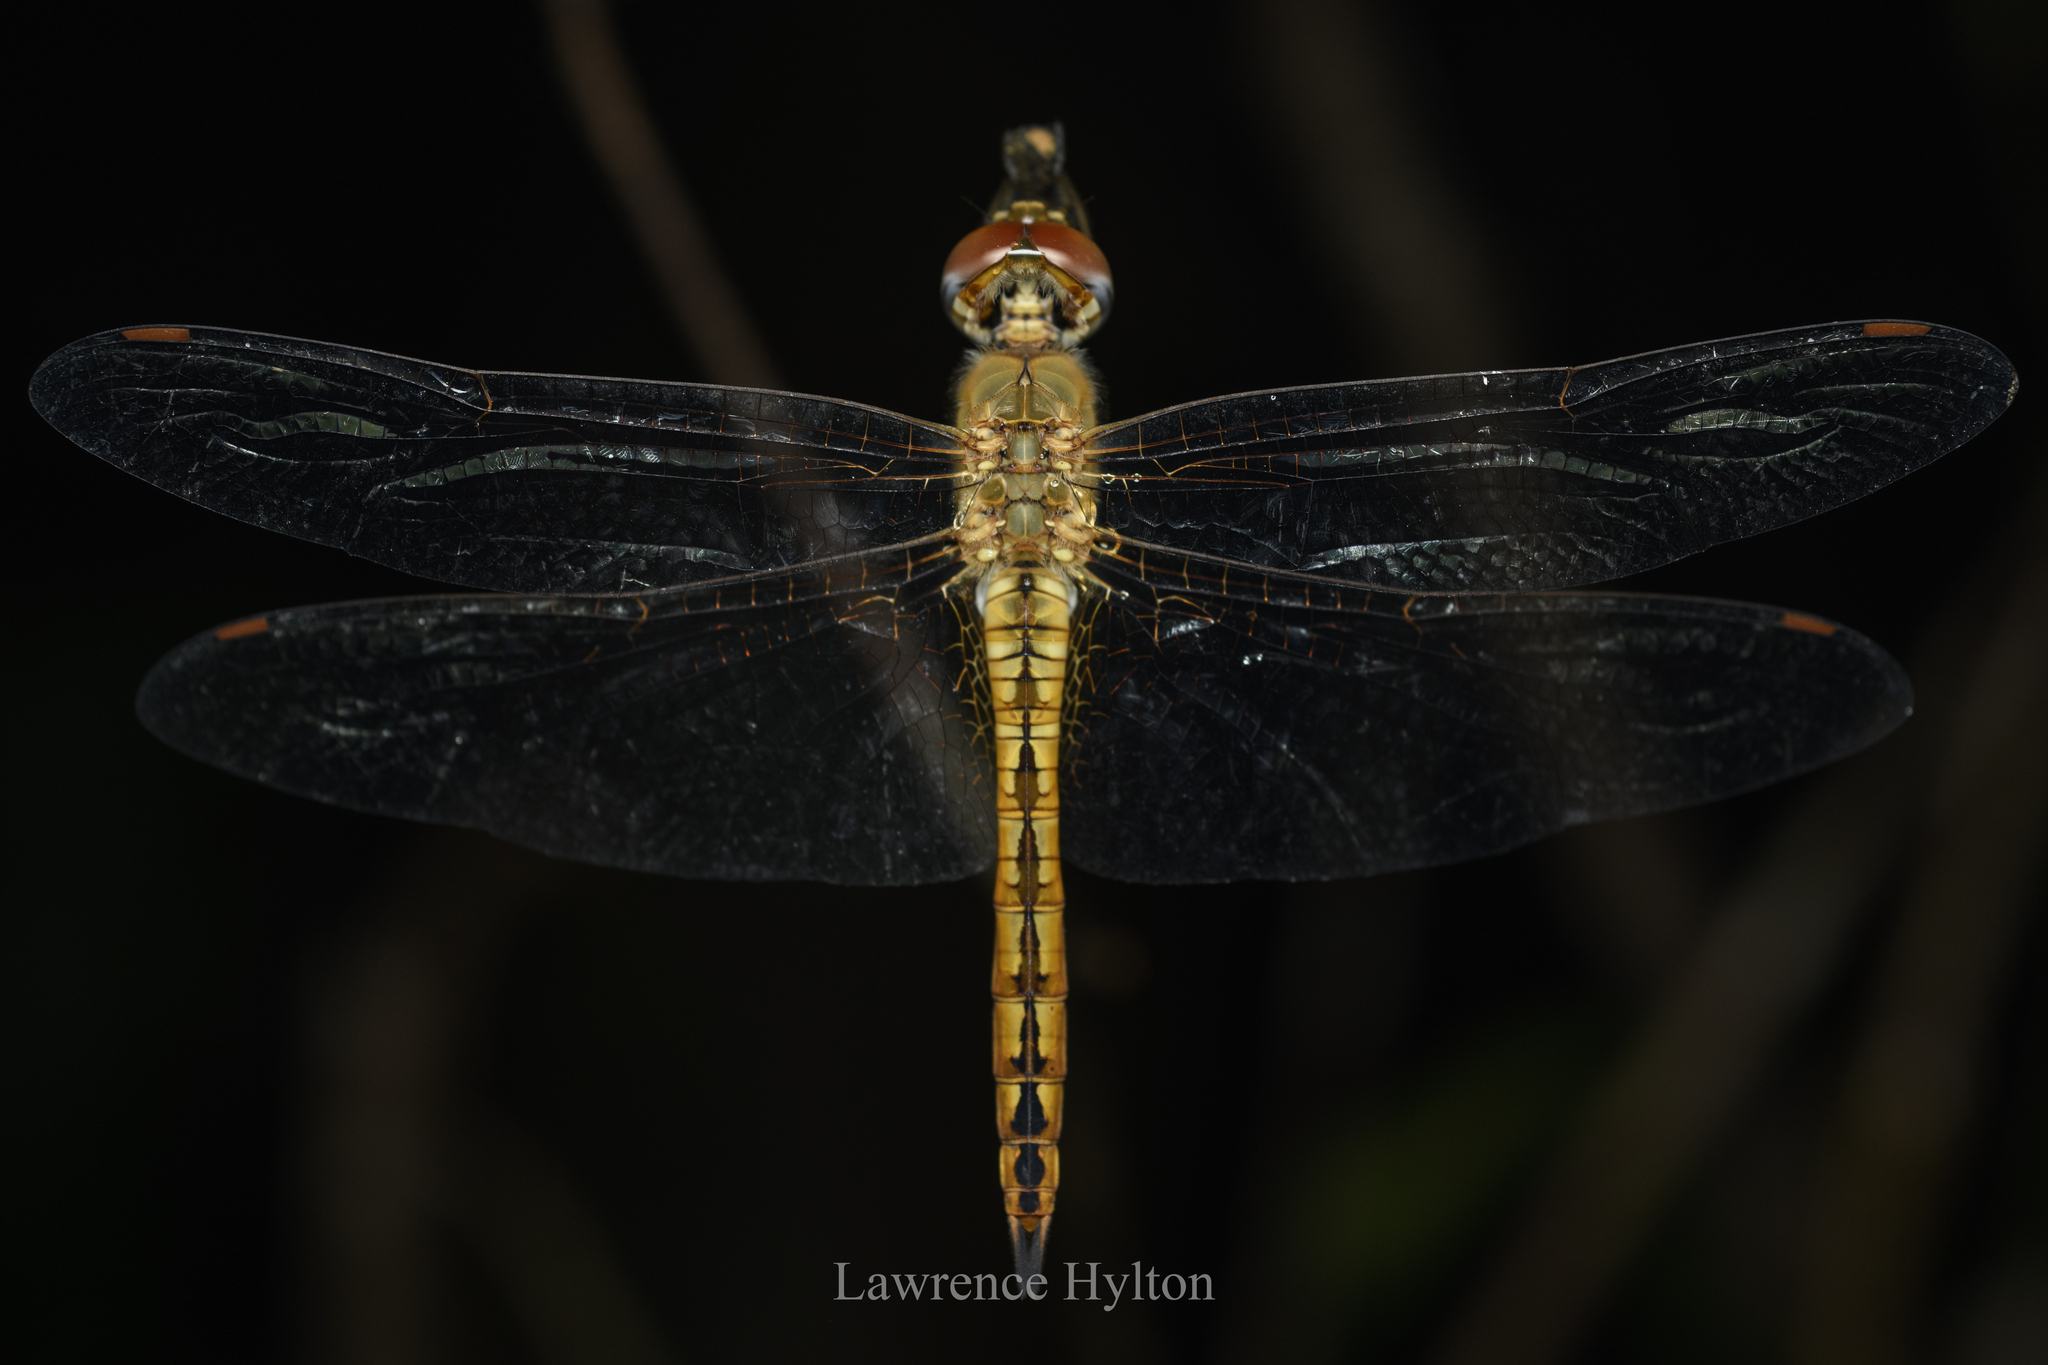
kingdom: Animalia
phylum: Arthropoda
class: Insecta
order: Odonata
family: Libellulidae
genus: Pantala
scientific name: Pantala flavescens
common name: Wandering glider
